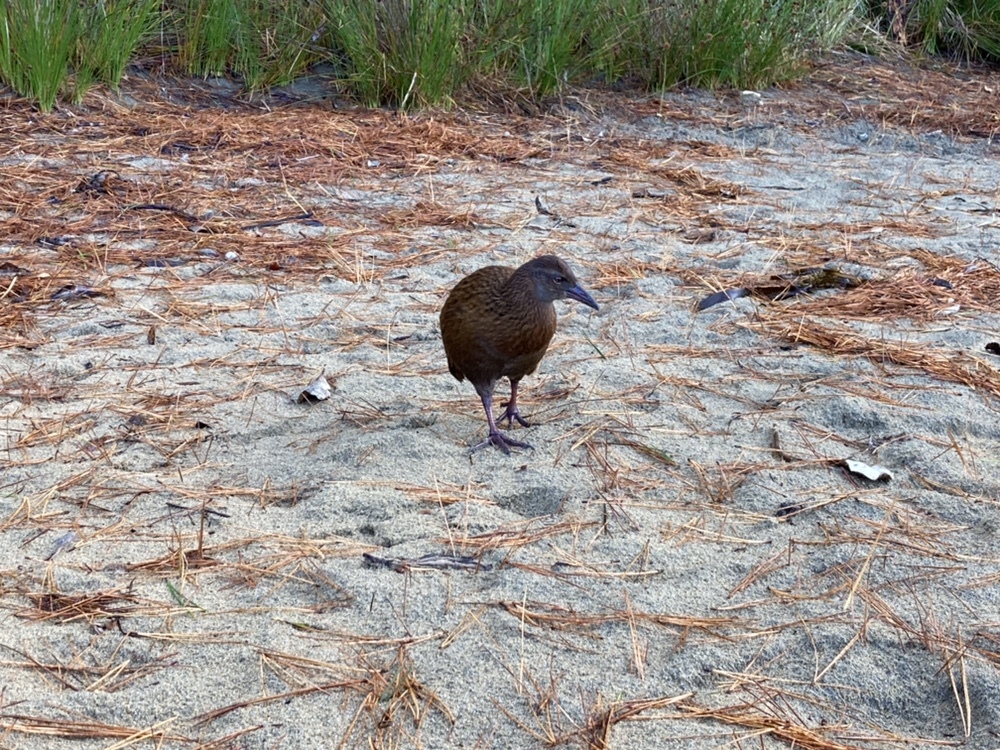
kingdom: Animalia
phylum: Chordata
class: Aves
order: Gruiformes
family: Rallidae
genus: Gallirallus
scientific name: Gallirallus australis
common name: Weka
